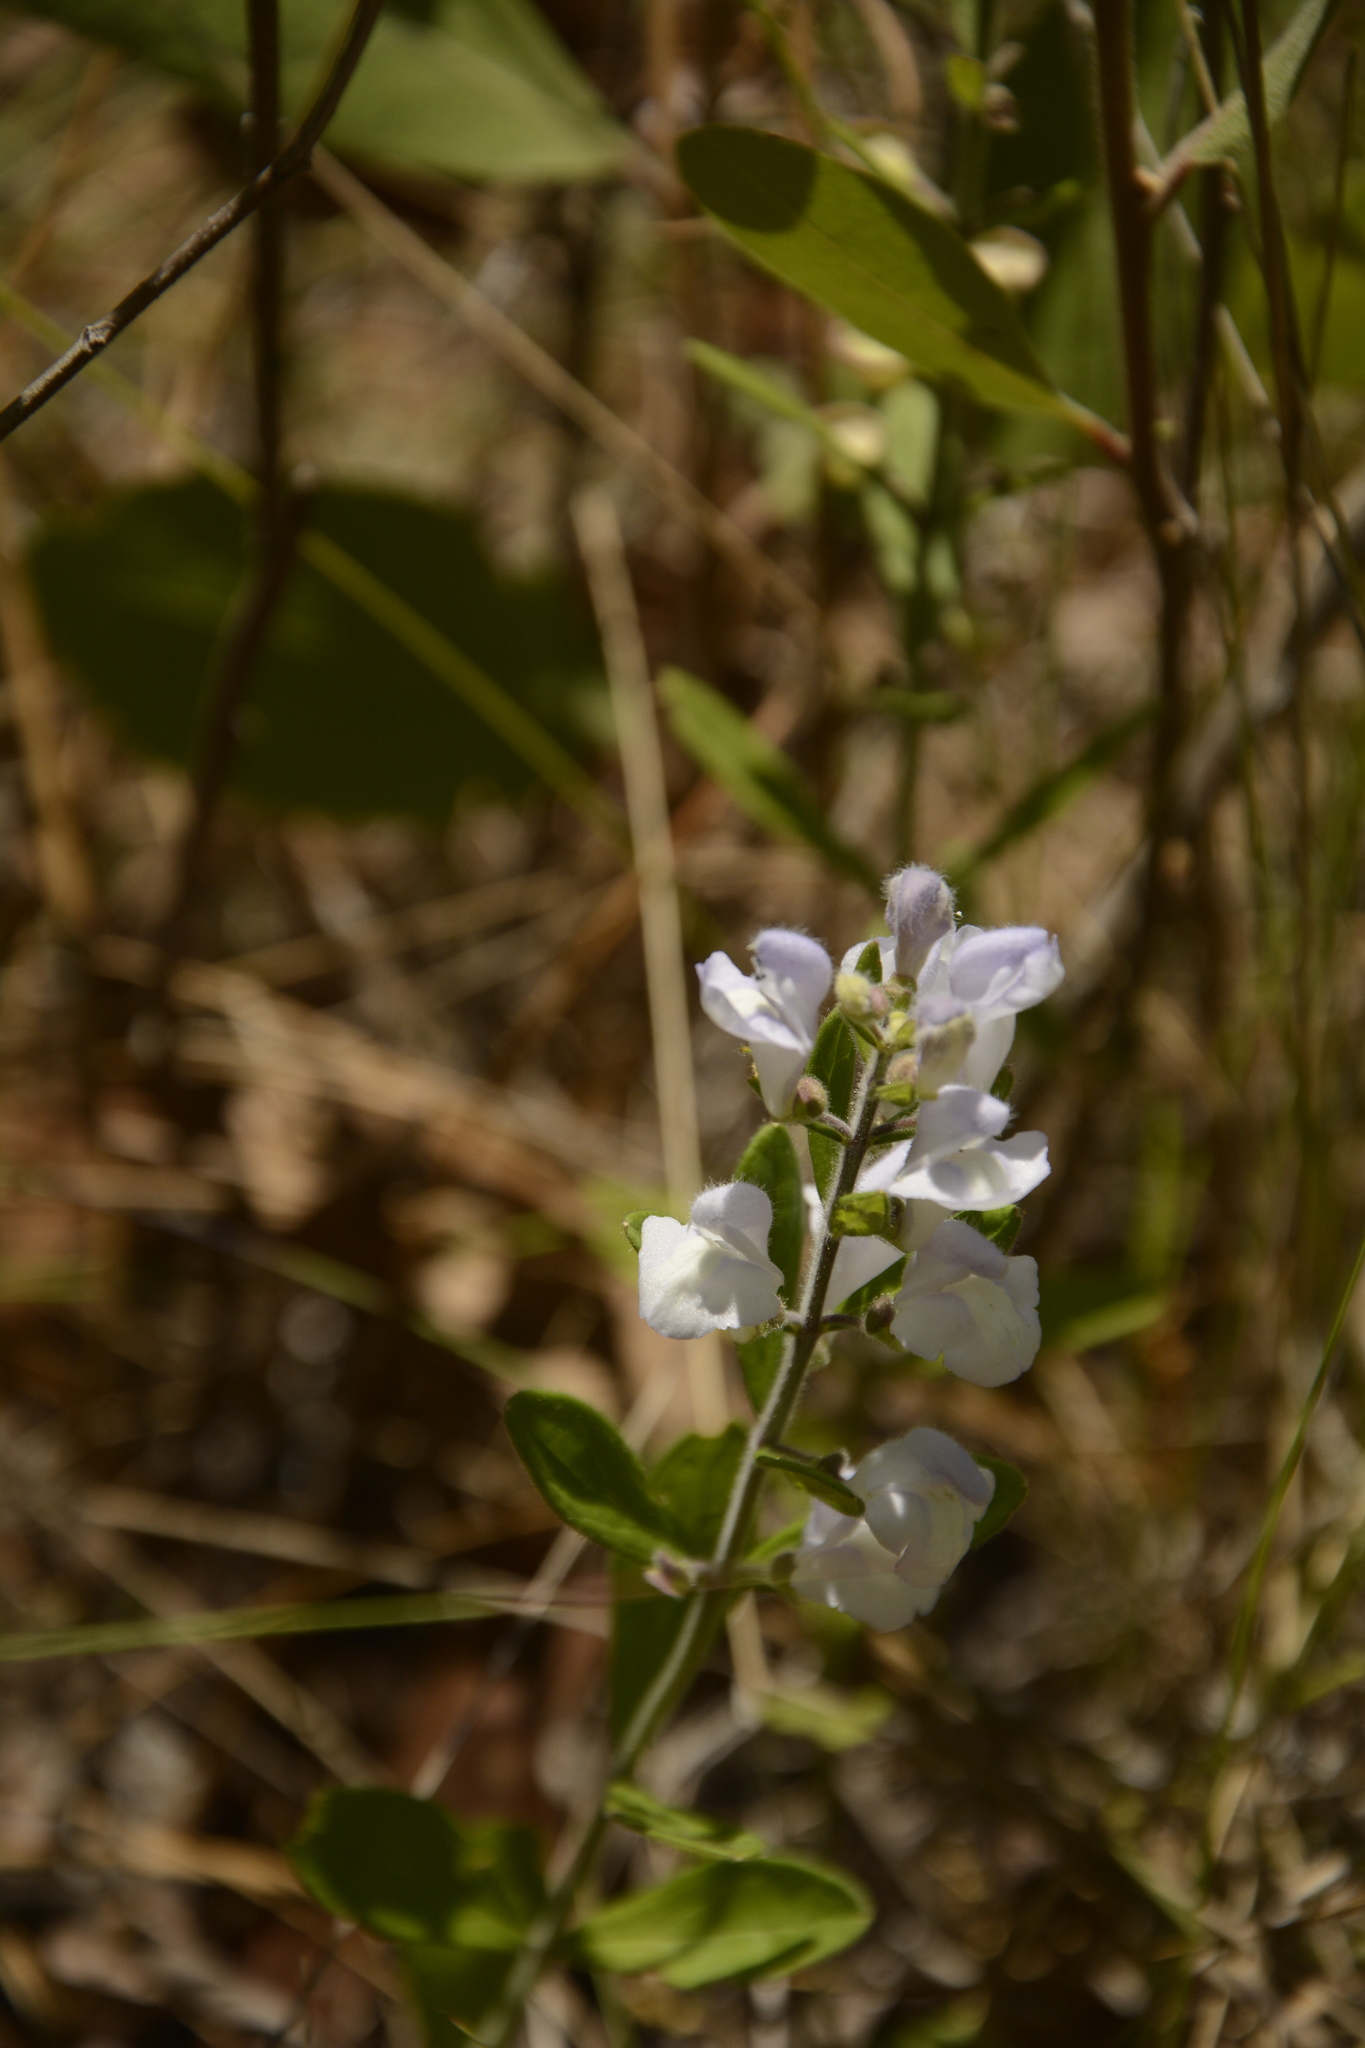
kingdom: Plantae
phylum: Tracheophyta
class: Magnoliopsida
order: Lamiales
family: Lamiaceae
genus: Scutellaria
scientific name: Scutellaria multiglandulosa
